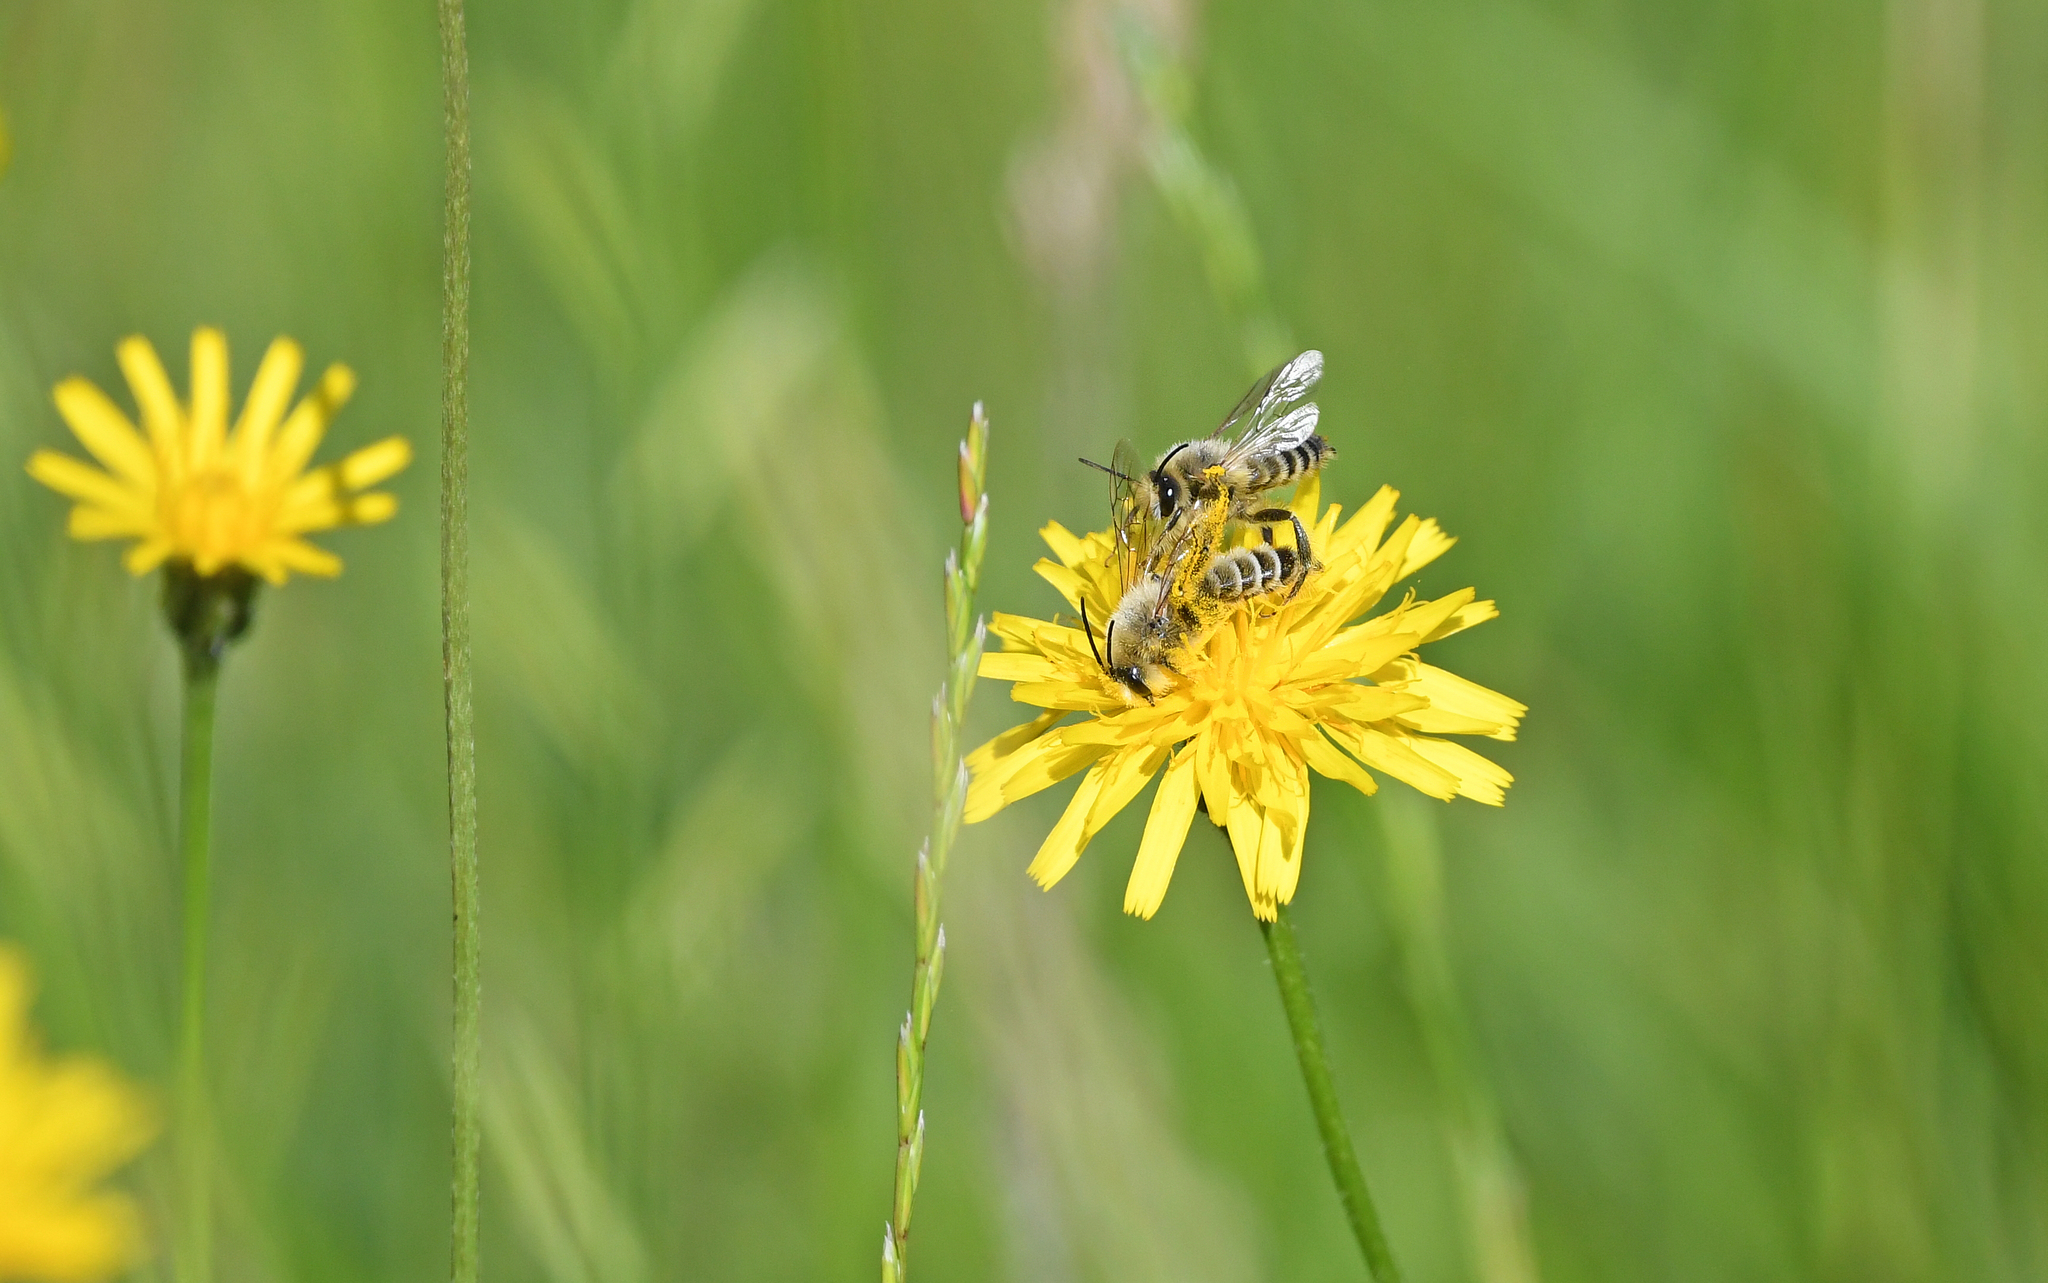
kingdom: Animalia
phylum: Arthropoda
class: Insecta
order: Hymenoptera
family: Melittidae
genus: Dasypoda
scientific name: Dasypoda hirtipes
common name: Pantaloon bee
